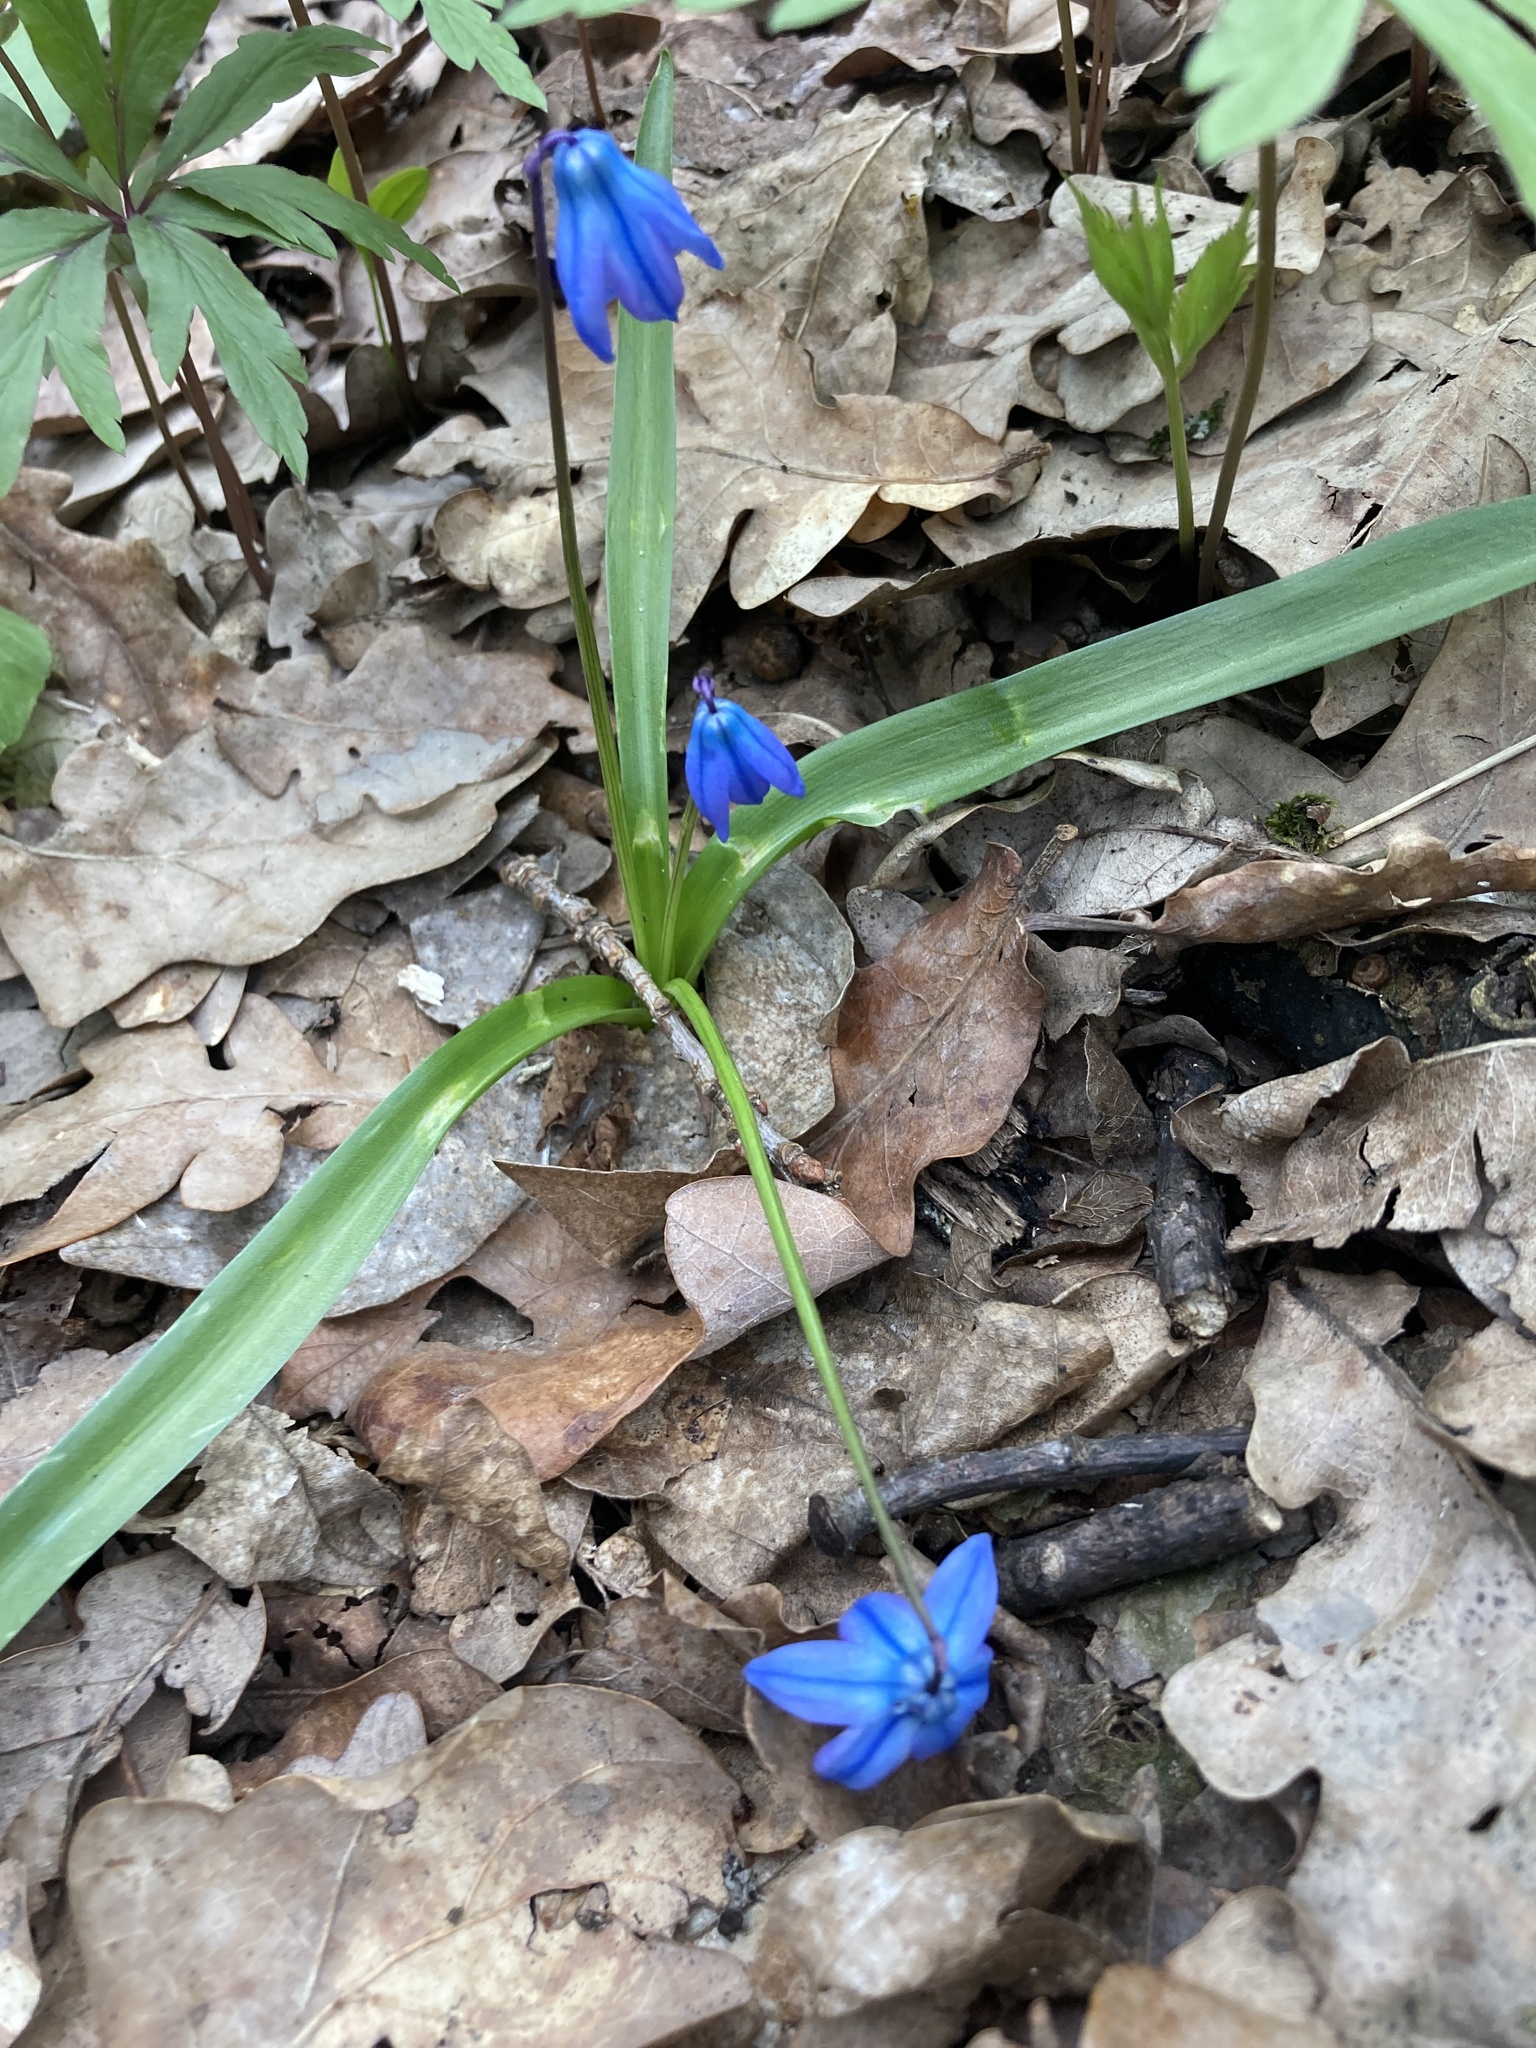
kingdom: Plantae
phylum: Tracheophyta
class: Liliopsida
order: Asparagales
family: Asparagaceae
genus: Scilla
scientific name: Scilla siberica
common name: Siberian squill
